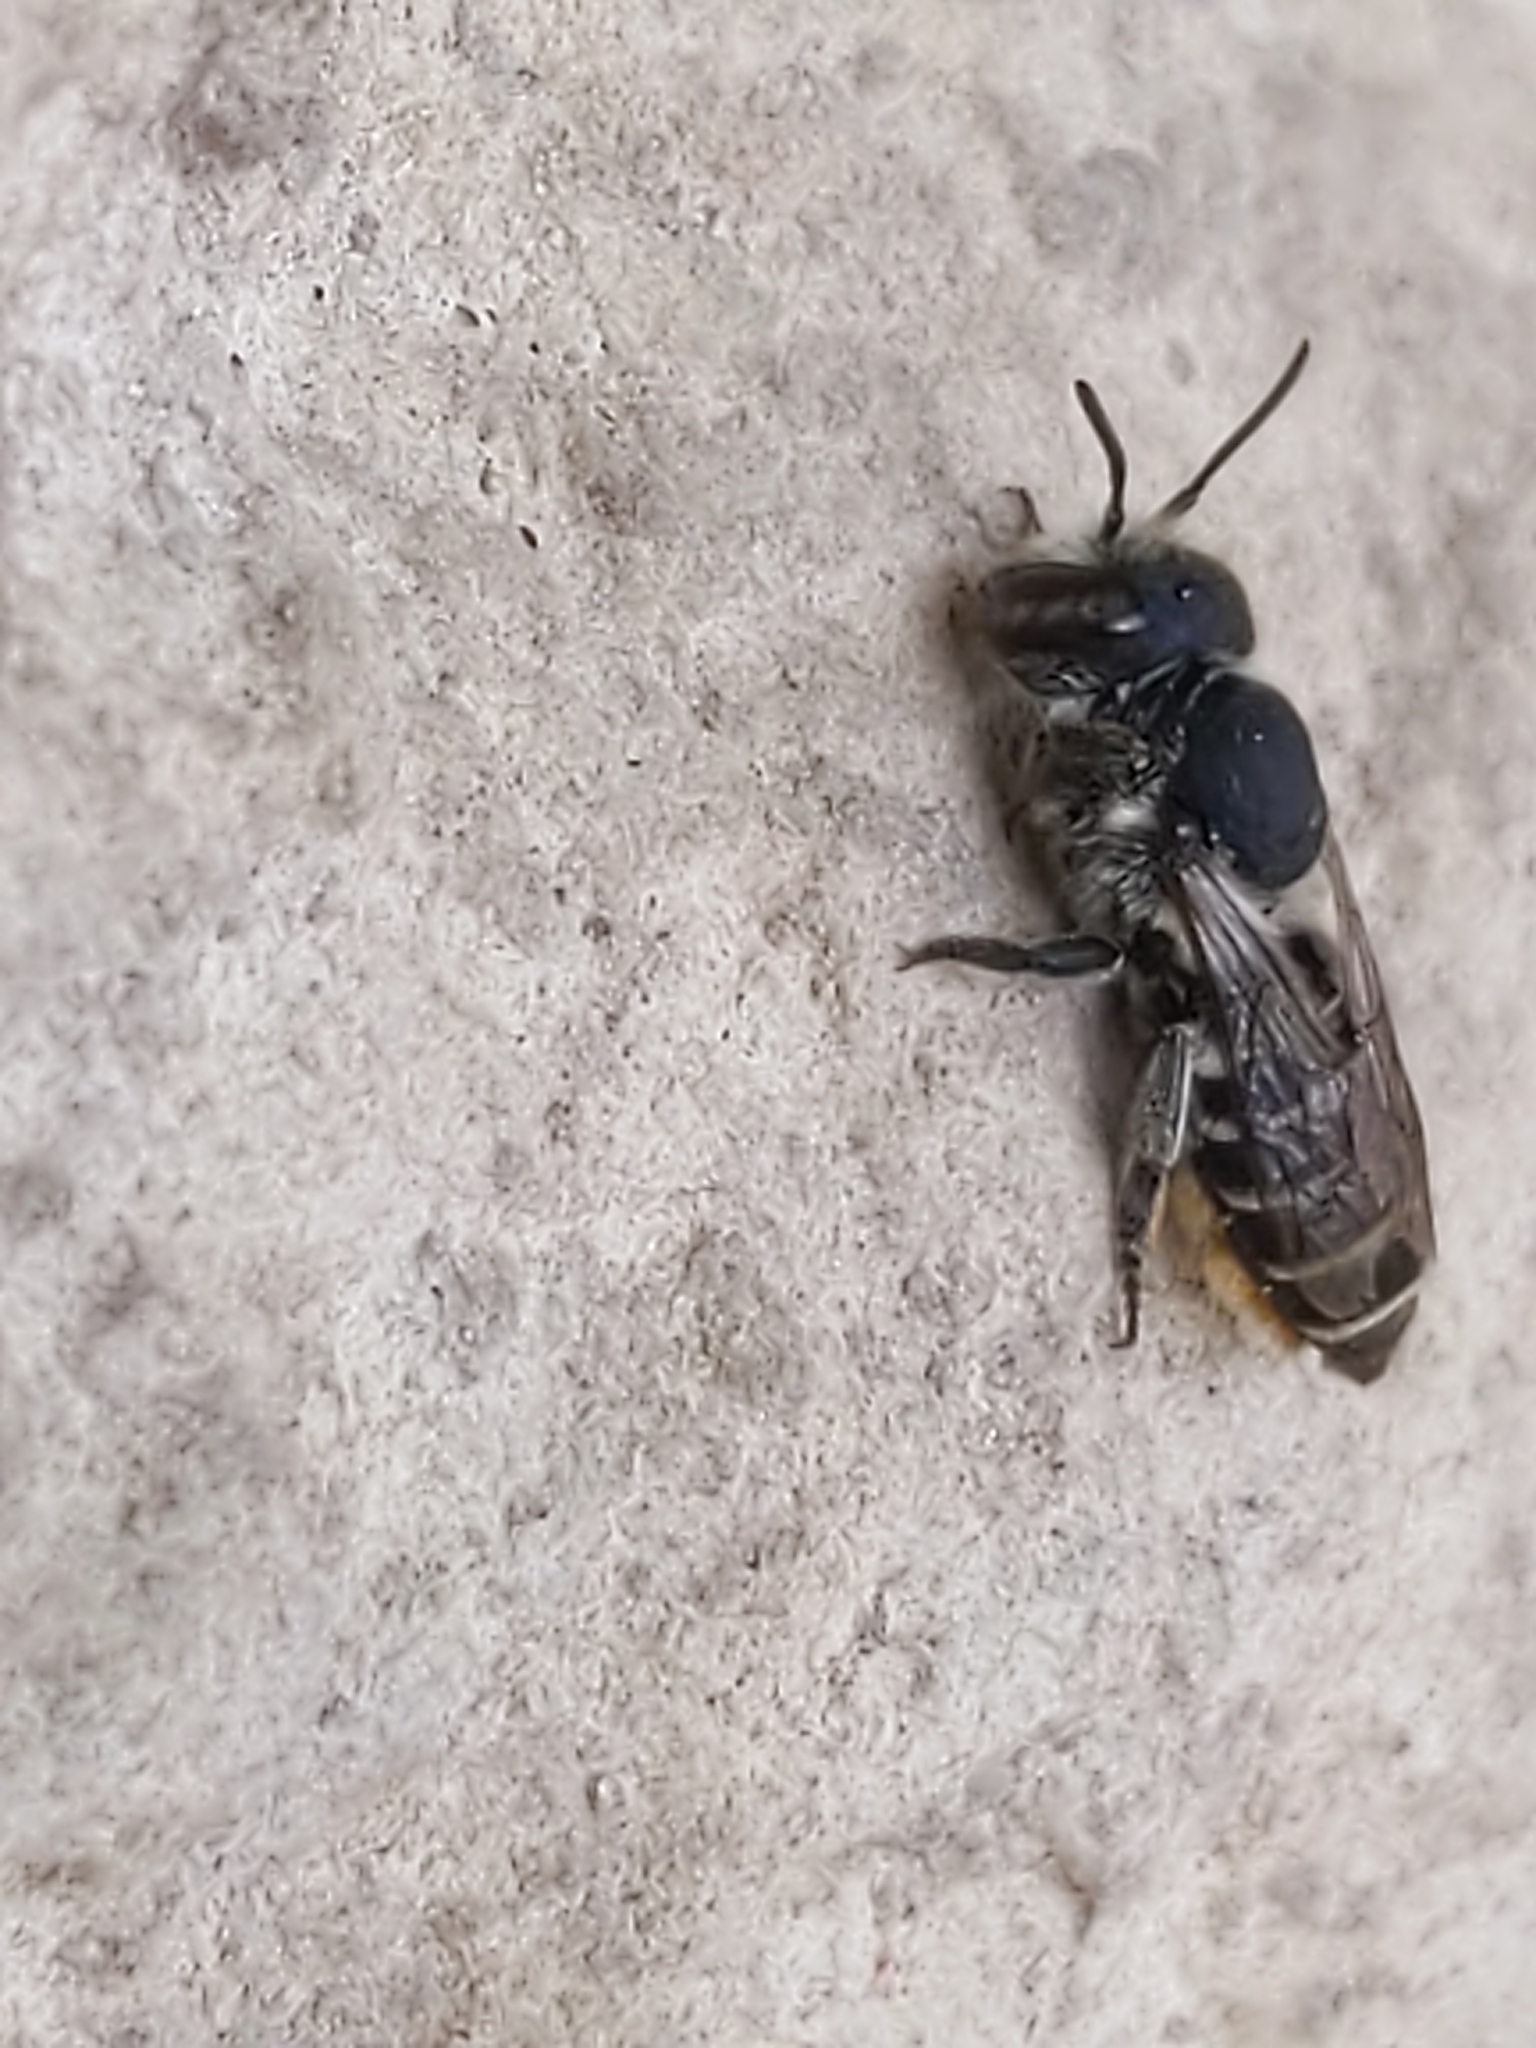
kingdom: Animalia
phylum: Arthropoda
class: Insecta
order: Hymenoptera
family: Megachilidae
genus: Megachile
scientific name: Megachile rotundata
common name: Alfalfa leafcutting bee
